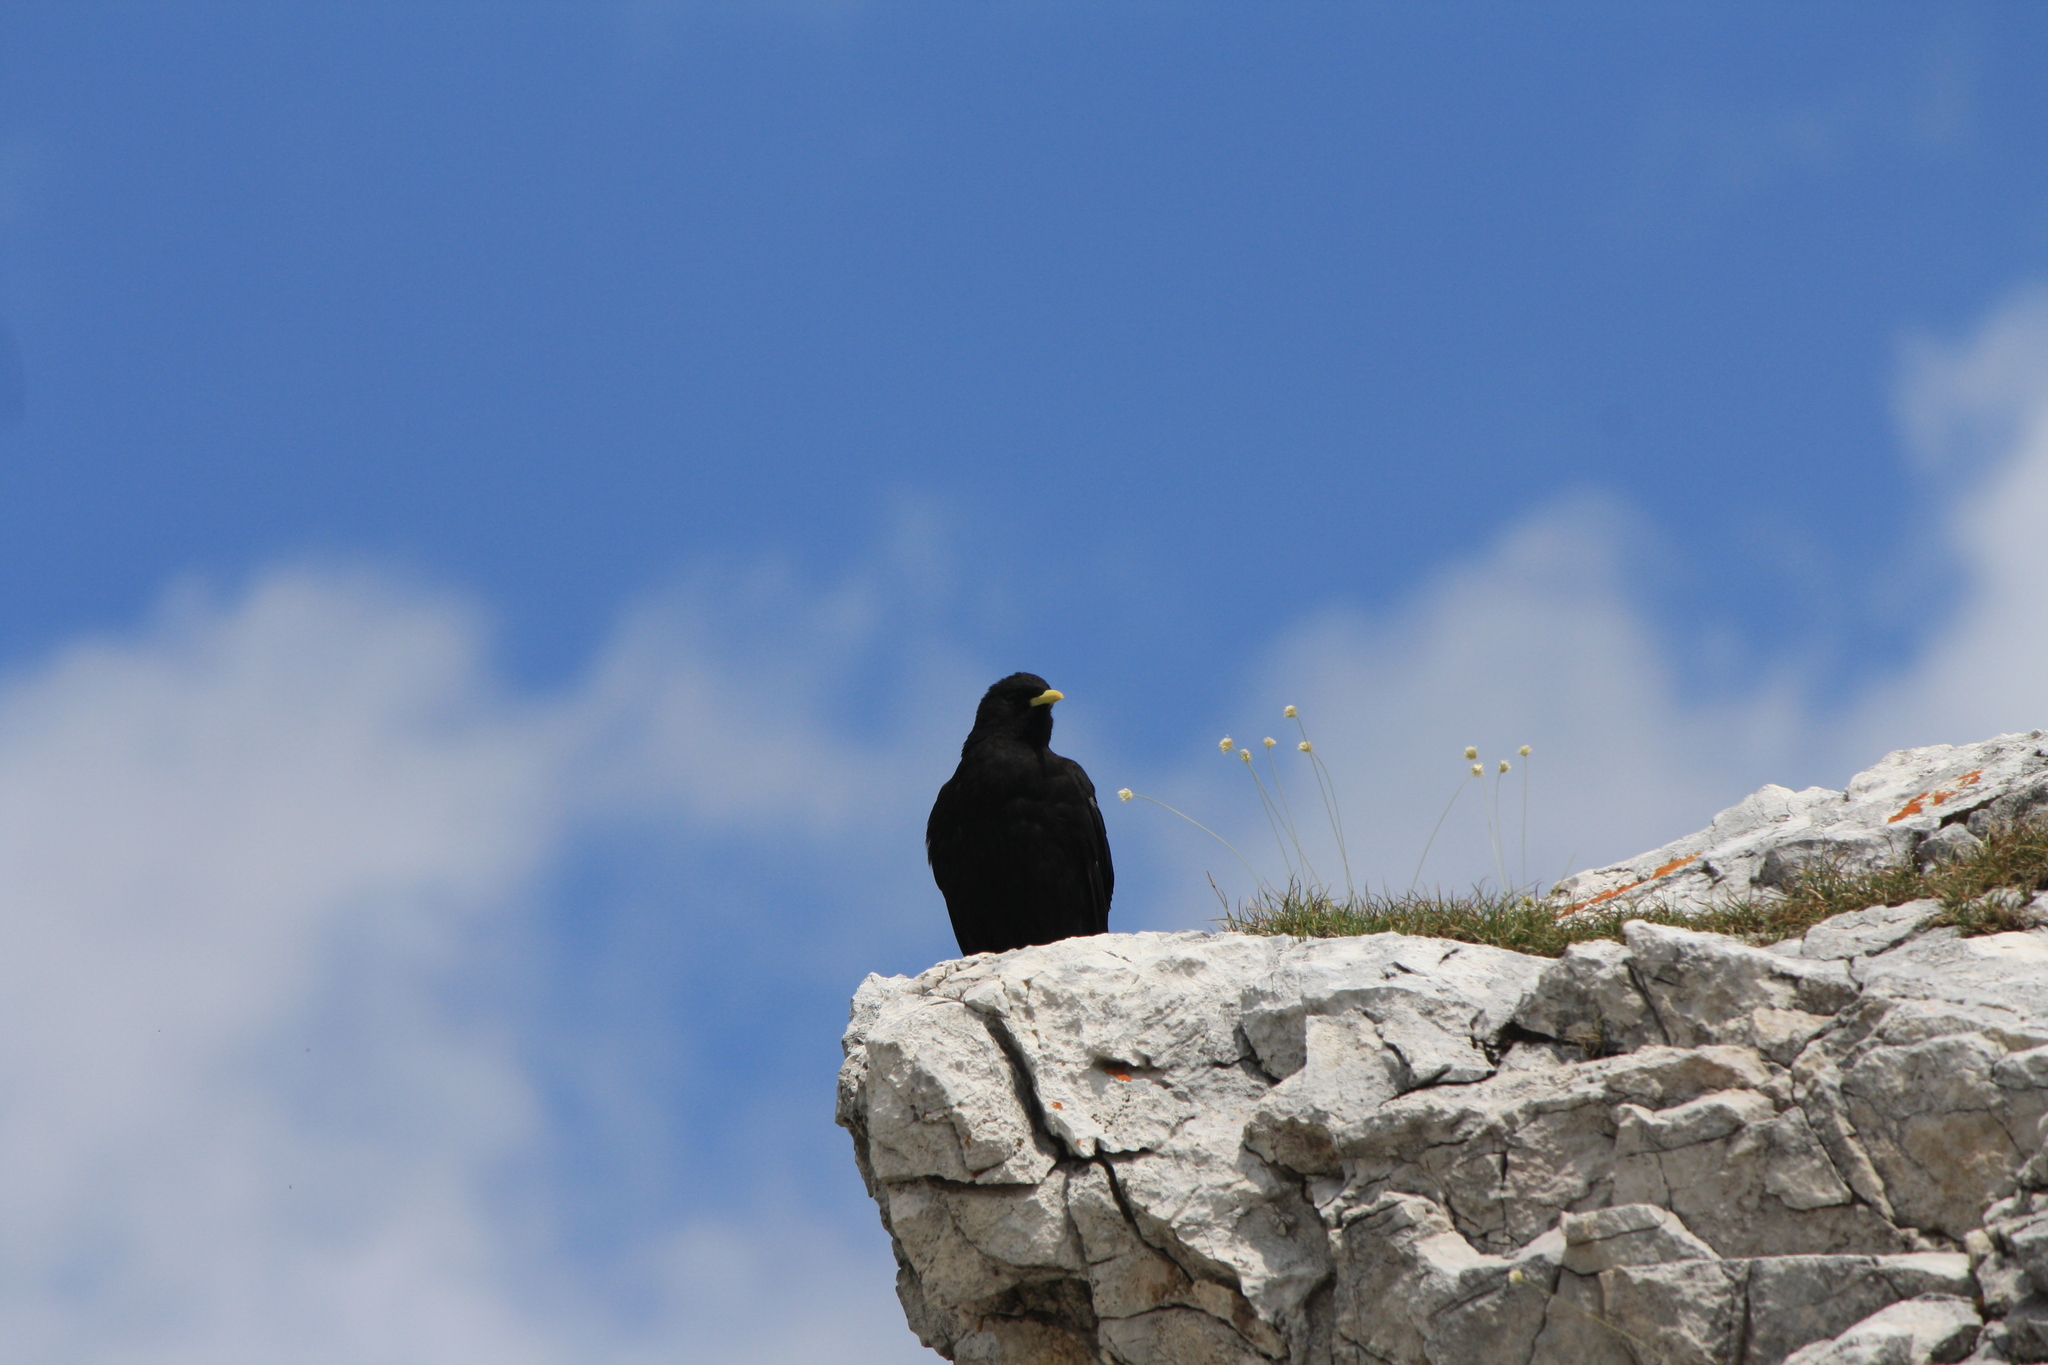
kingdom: Animalia
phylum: Chordata
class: Aves
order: Passeriformes
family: Corvidae
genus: Pyrrhocorax
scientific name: Pyrrhocorax graculus
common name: Alpine chough
